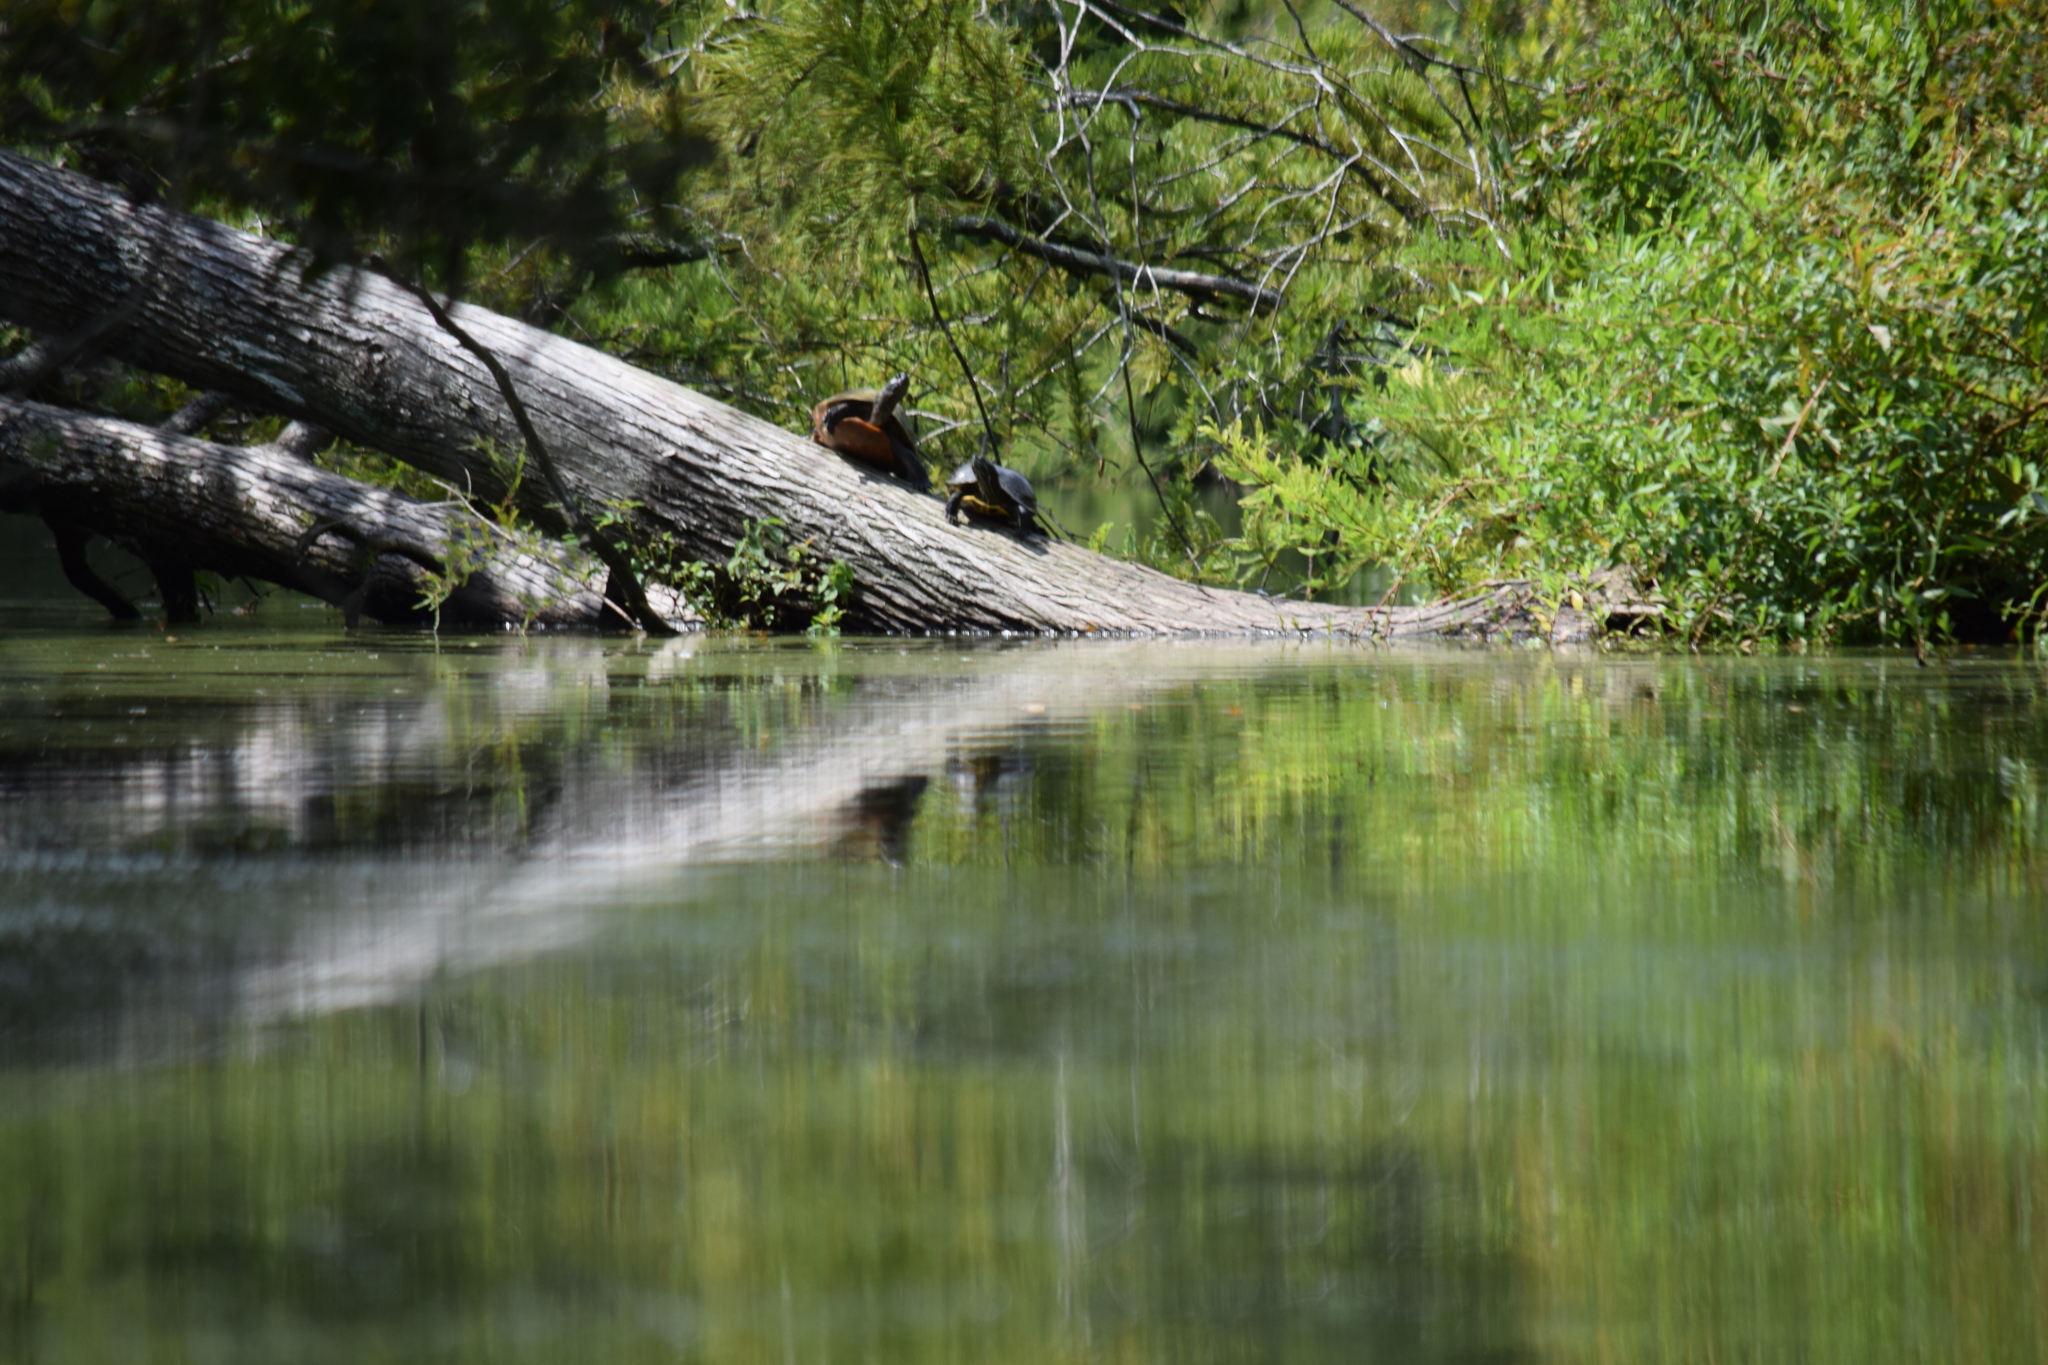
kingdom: Animalia
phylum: Chordata
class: Testudines
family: Emydidae
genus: Pseudemys
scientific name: Pseudemys rubriventris
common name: American red-bellied turtle
